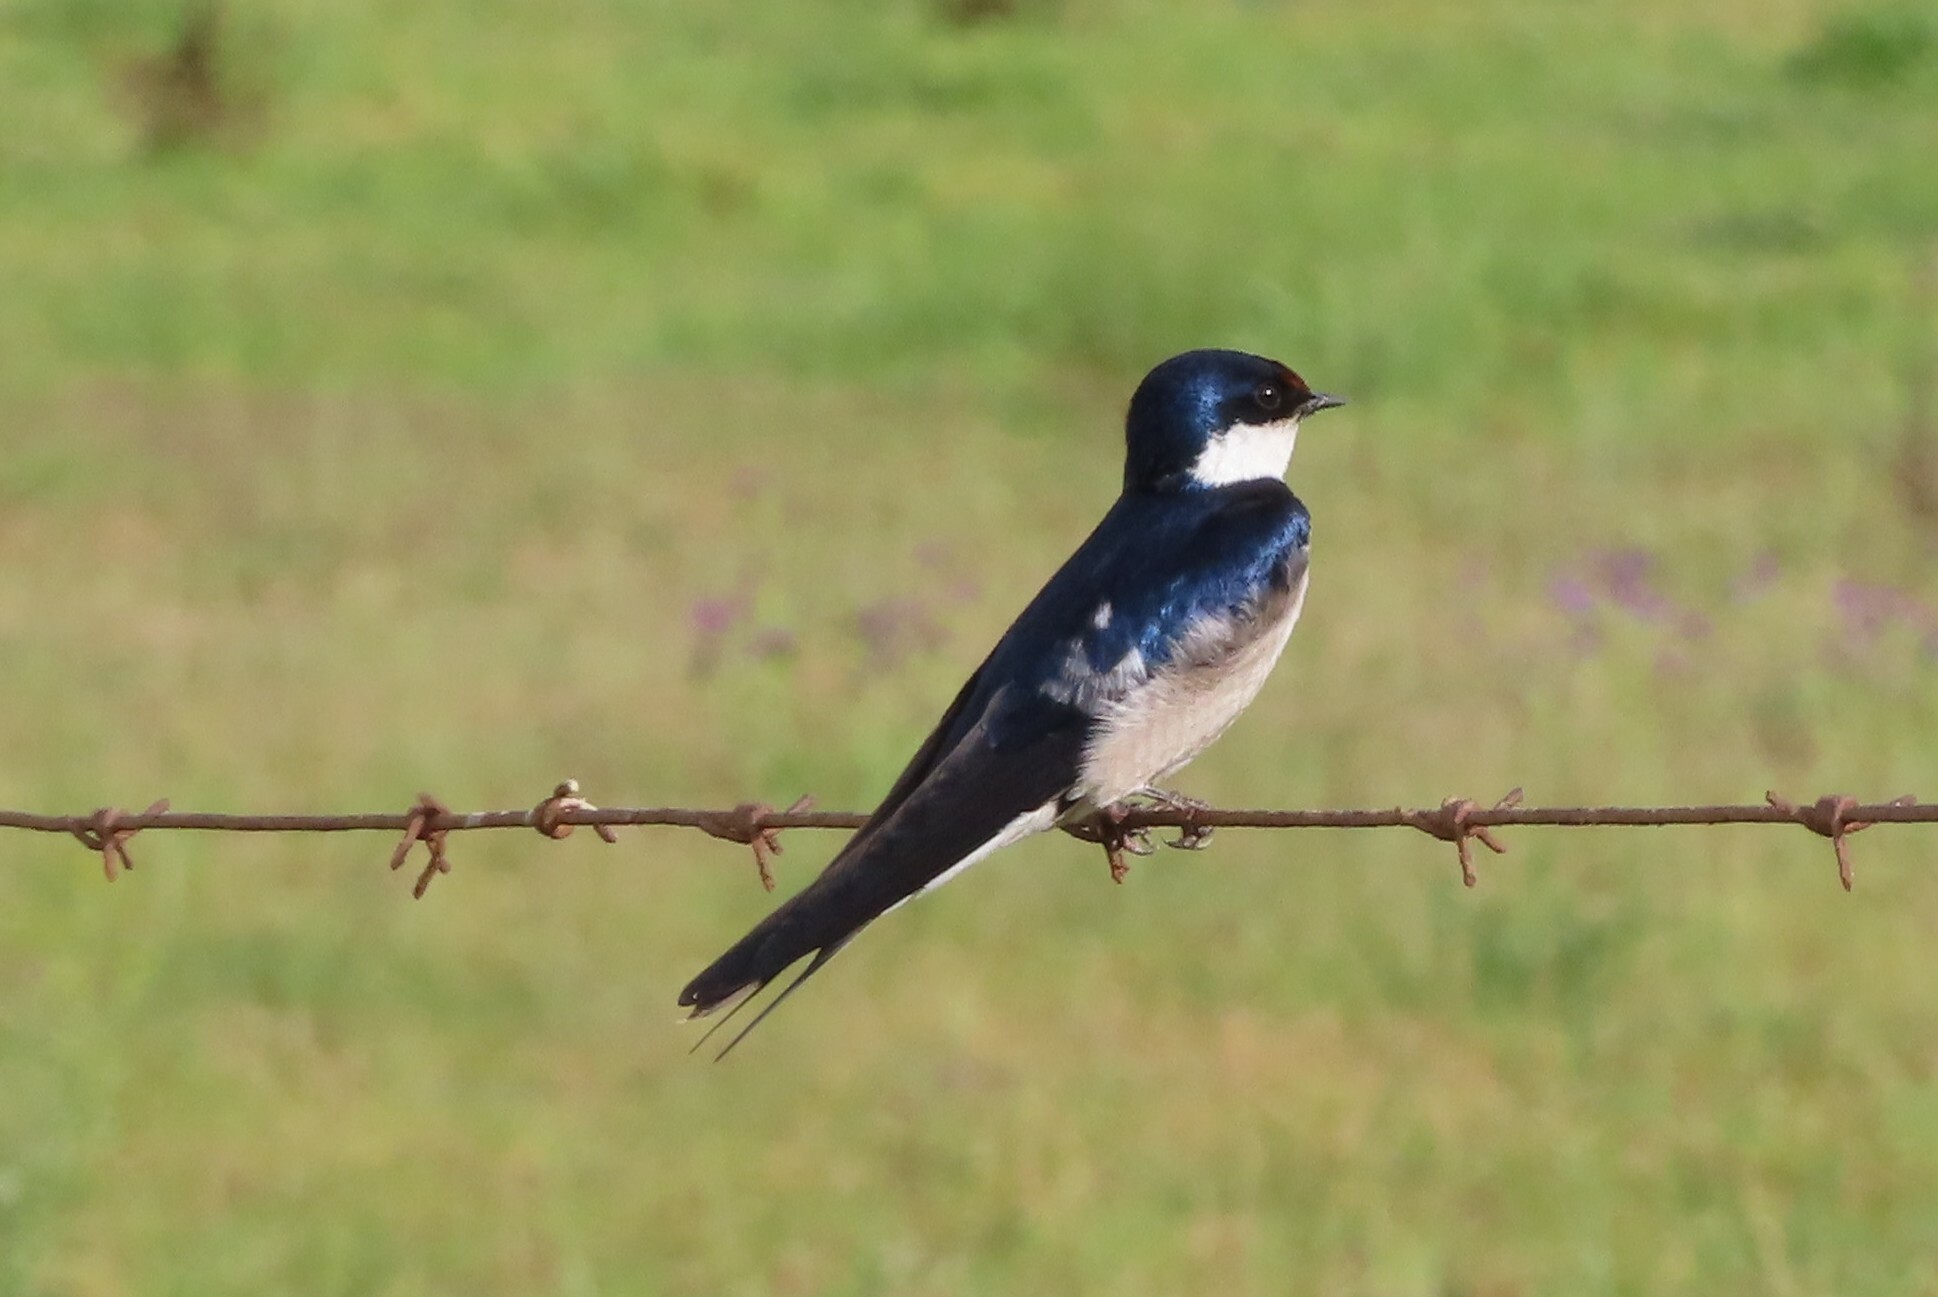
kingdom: Animalia
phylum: Chordata
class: Aves
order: Passeriformes
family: Hirundinidae
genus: Hirundo
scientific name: Hirundo albigularis
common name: White-throated swallow
